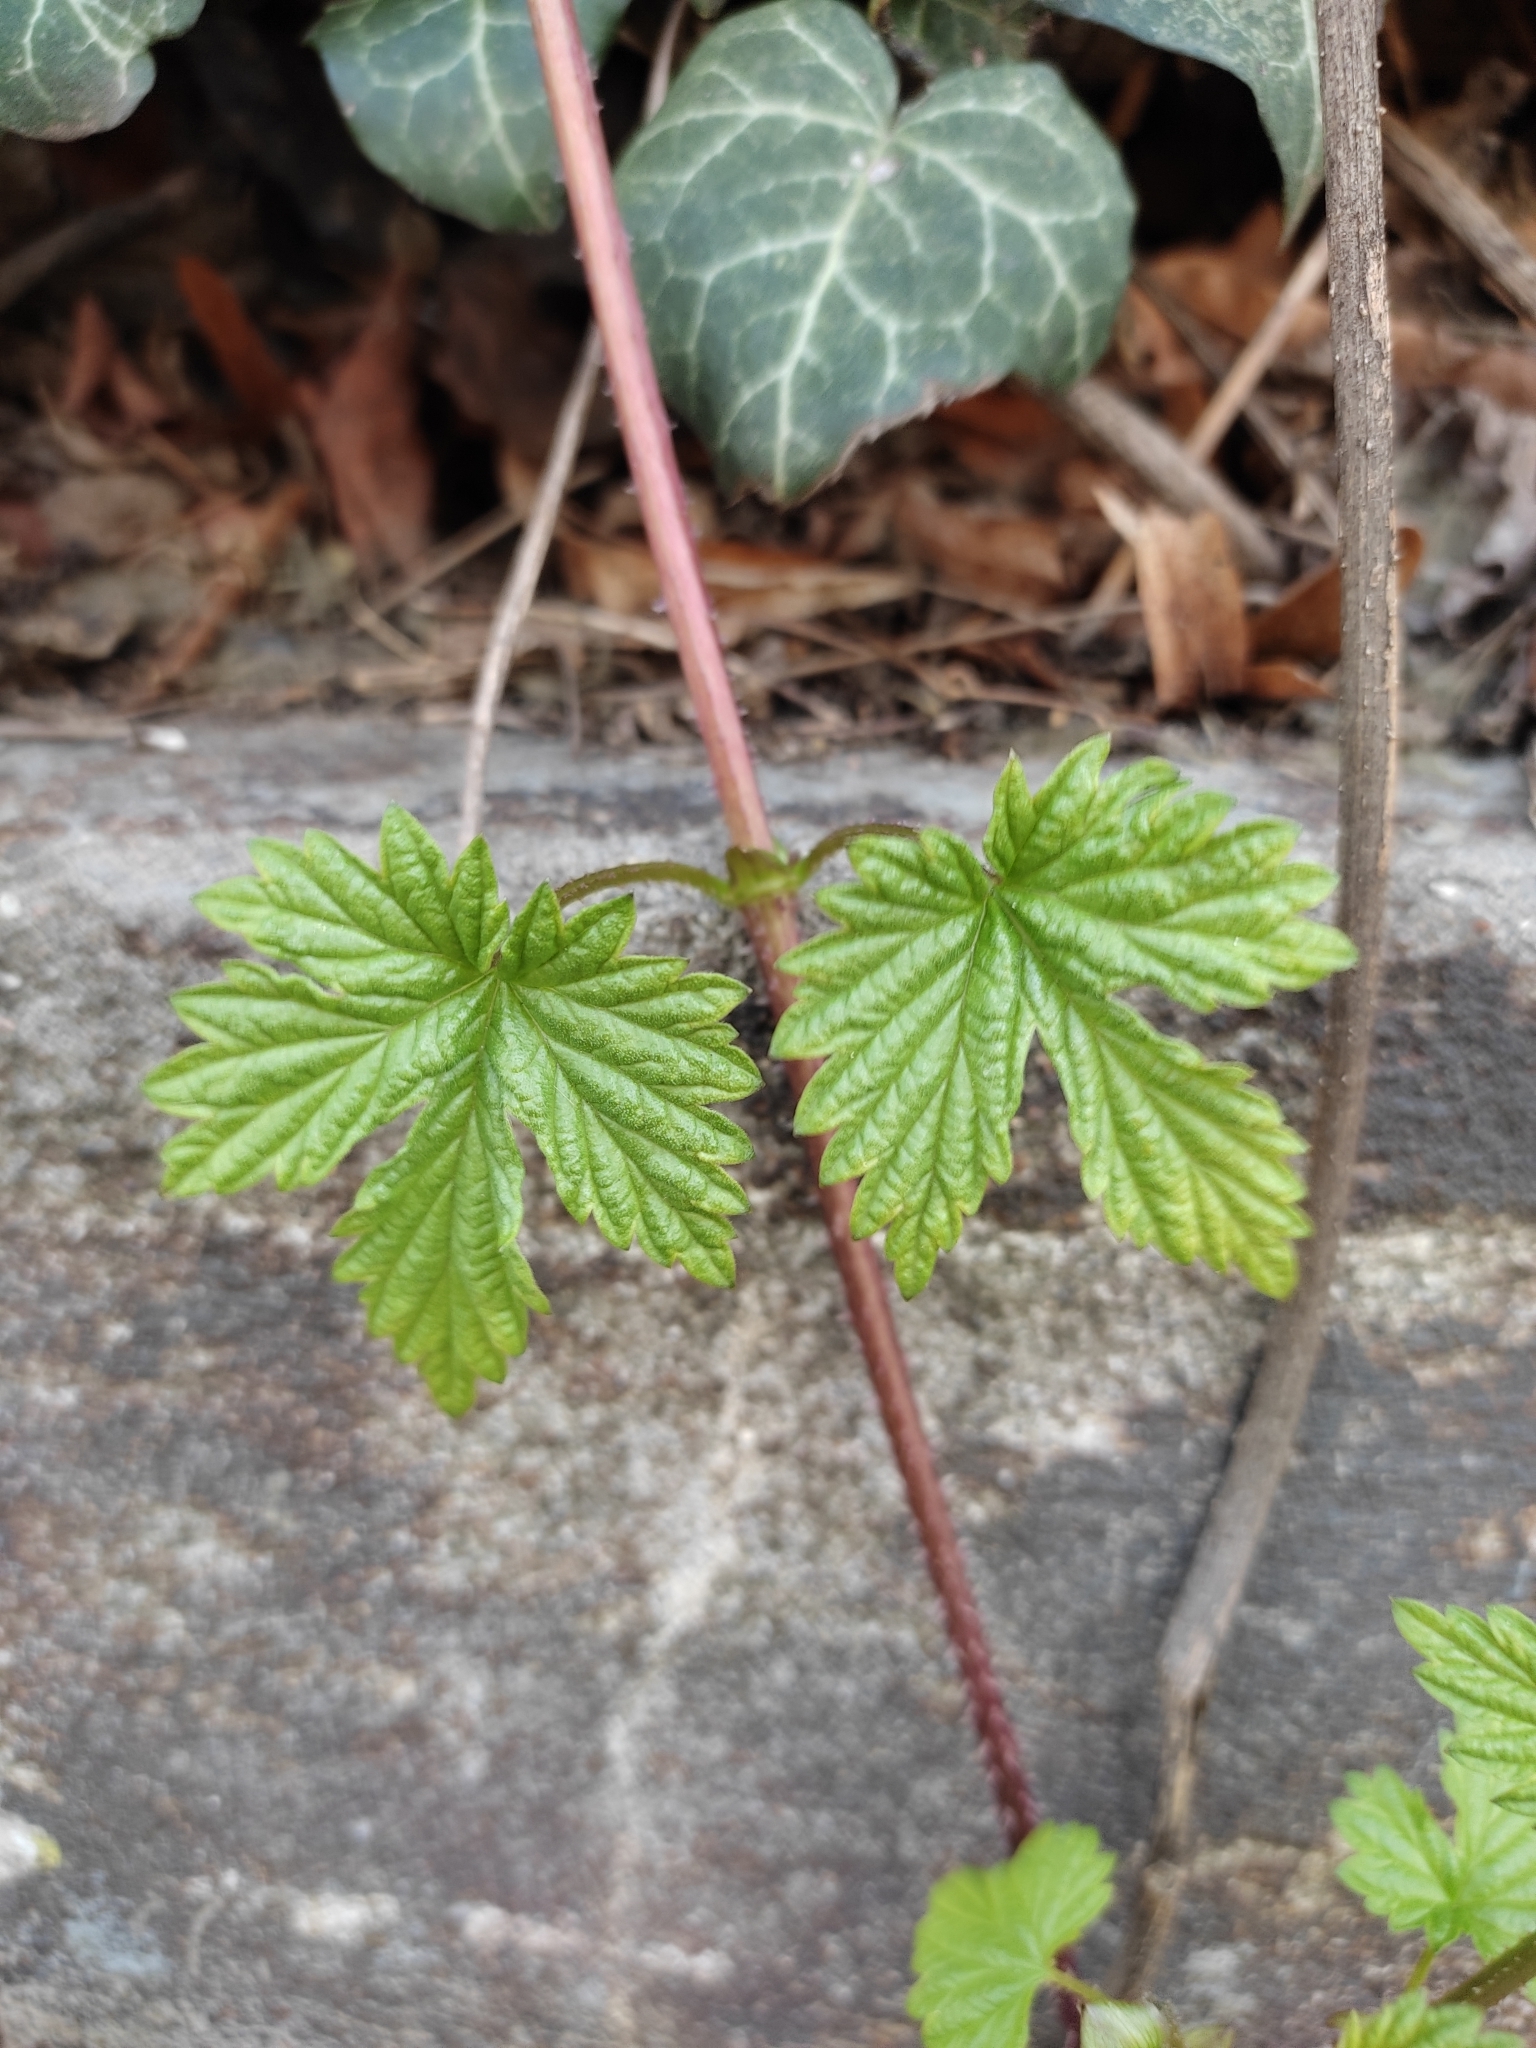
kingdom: Plantae
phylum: Tracheophyta
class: Magnoliopsida
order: Rosales
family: Cannabaceae
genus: Humulus
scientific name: Humulus lupulus
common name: Hop
